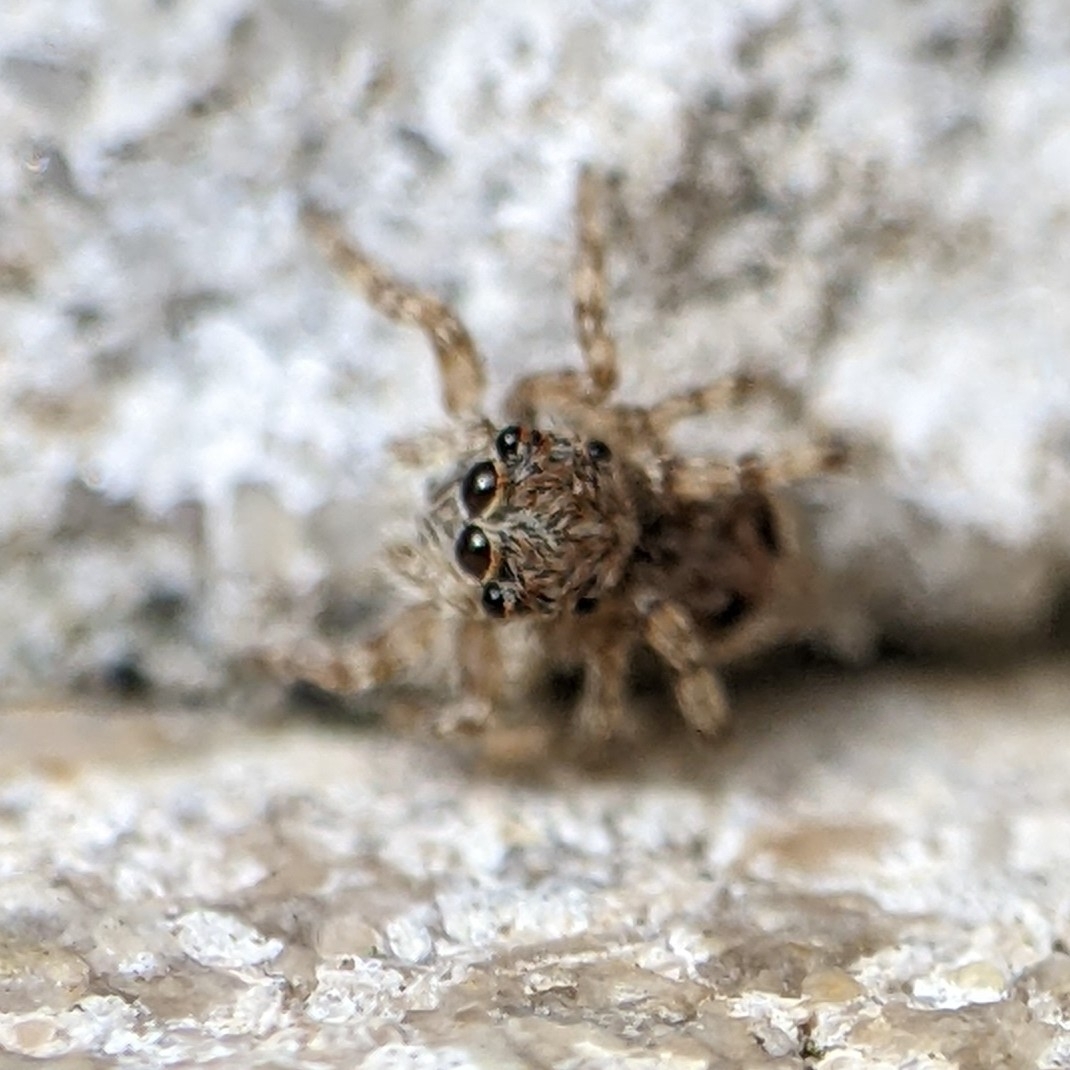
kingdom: Animalia
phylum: Arthropoda
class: Arachnida
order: Araneae
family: Salticidae
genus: Attulus
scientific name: Attulus fasciger
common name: Asiatic wall jumping spider
